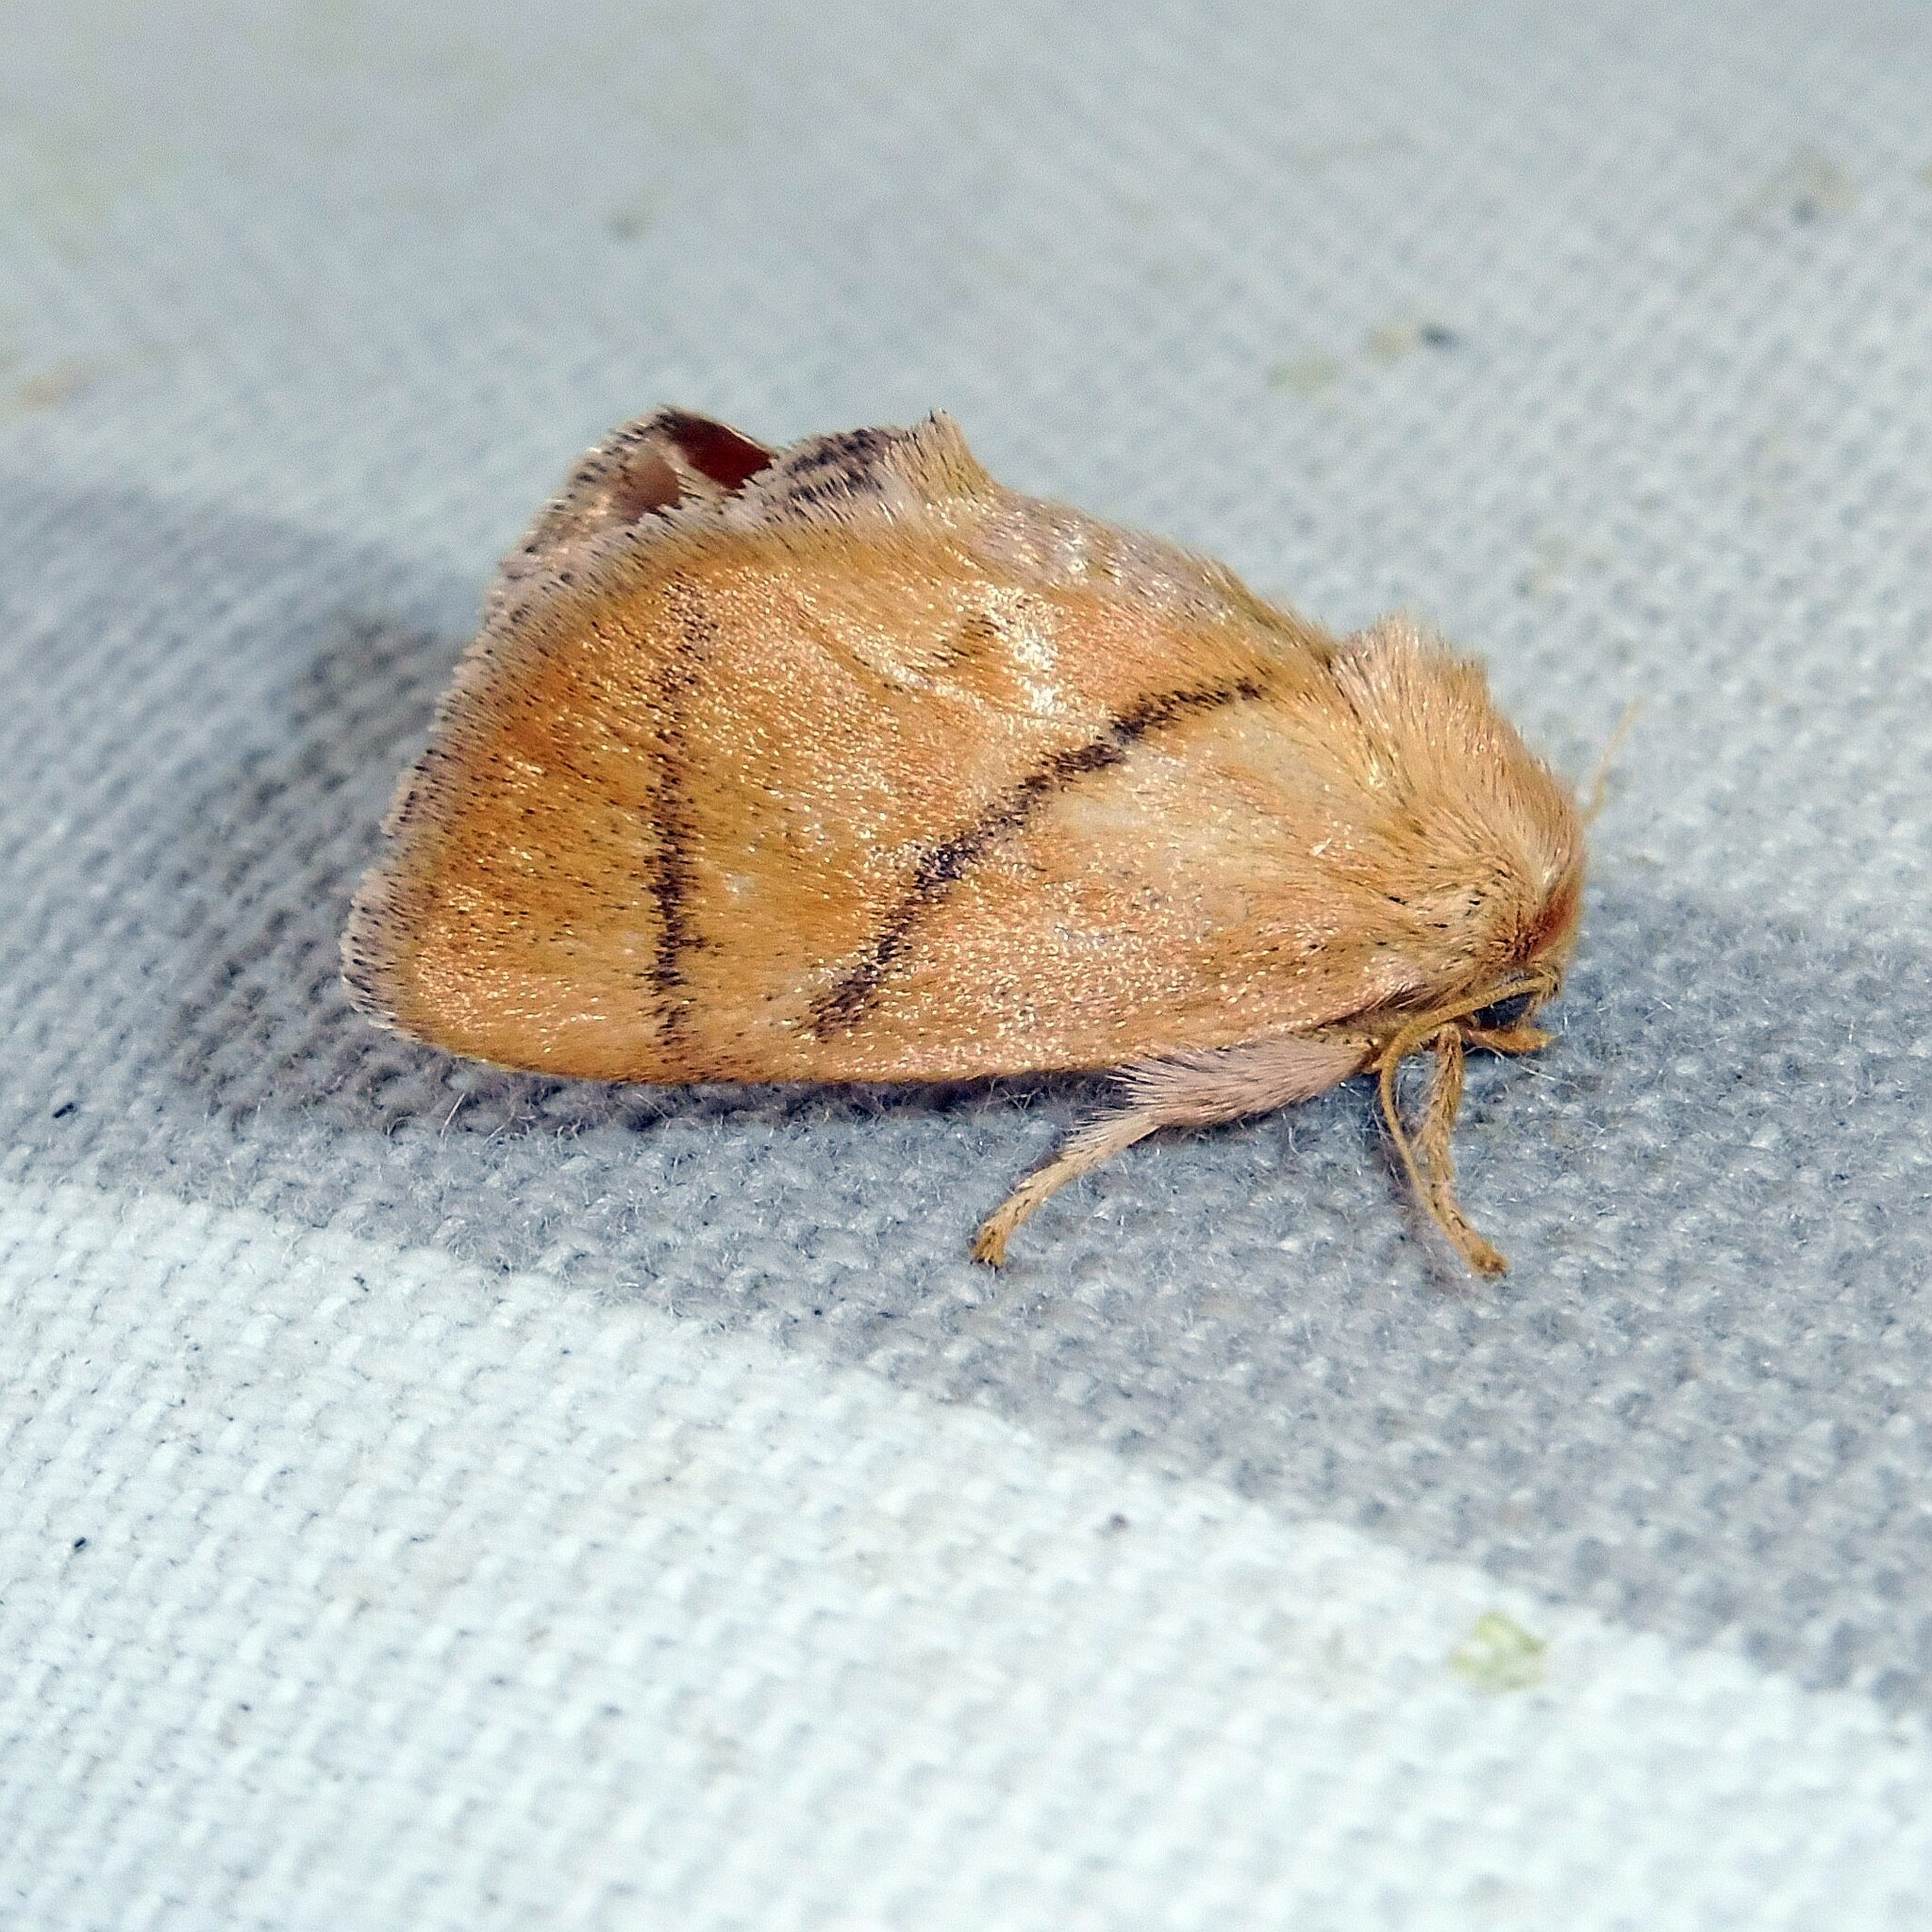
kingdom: Animalia
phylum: Arthropoda
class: Insecta
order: Lepidoptera
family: Limacodidae
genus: Apoda
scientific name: Apoda limacodes
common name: Festoon
